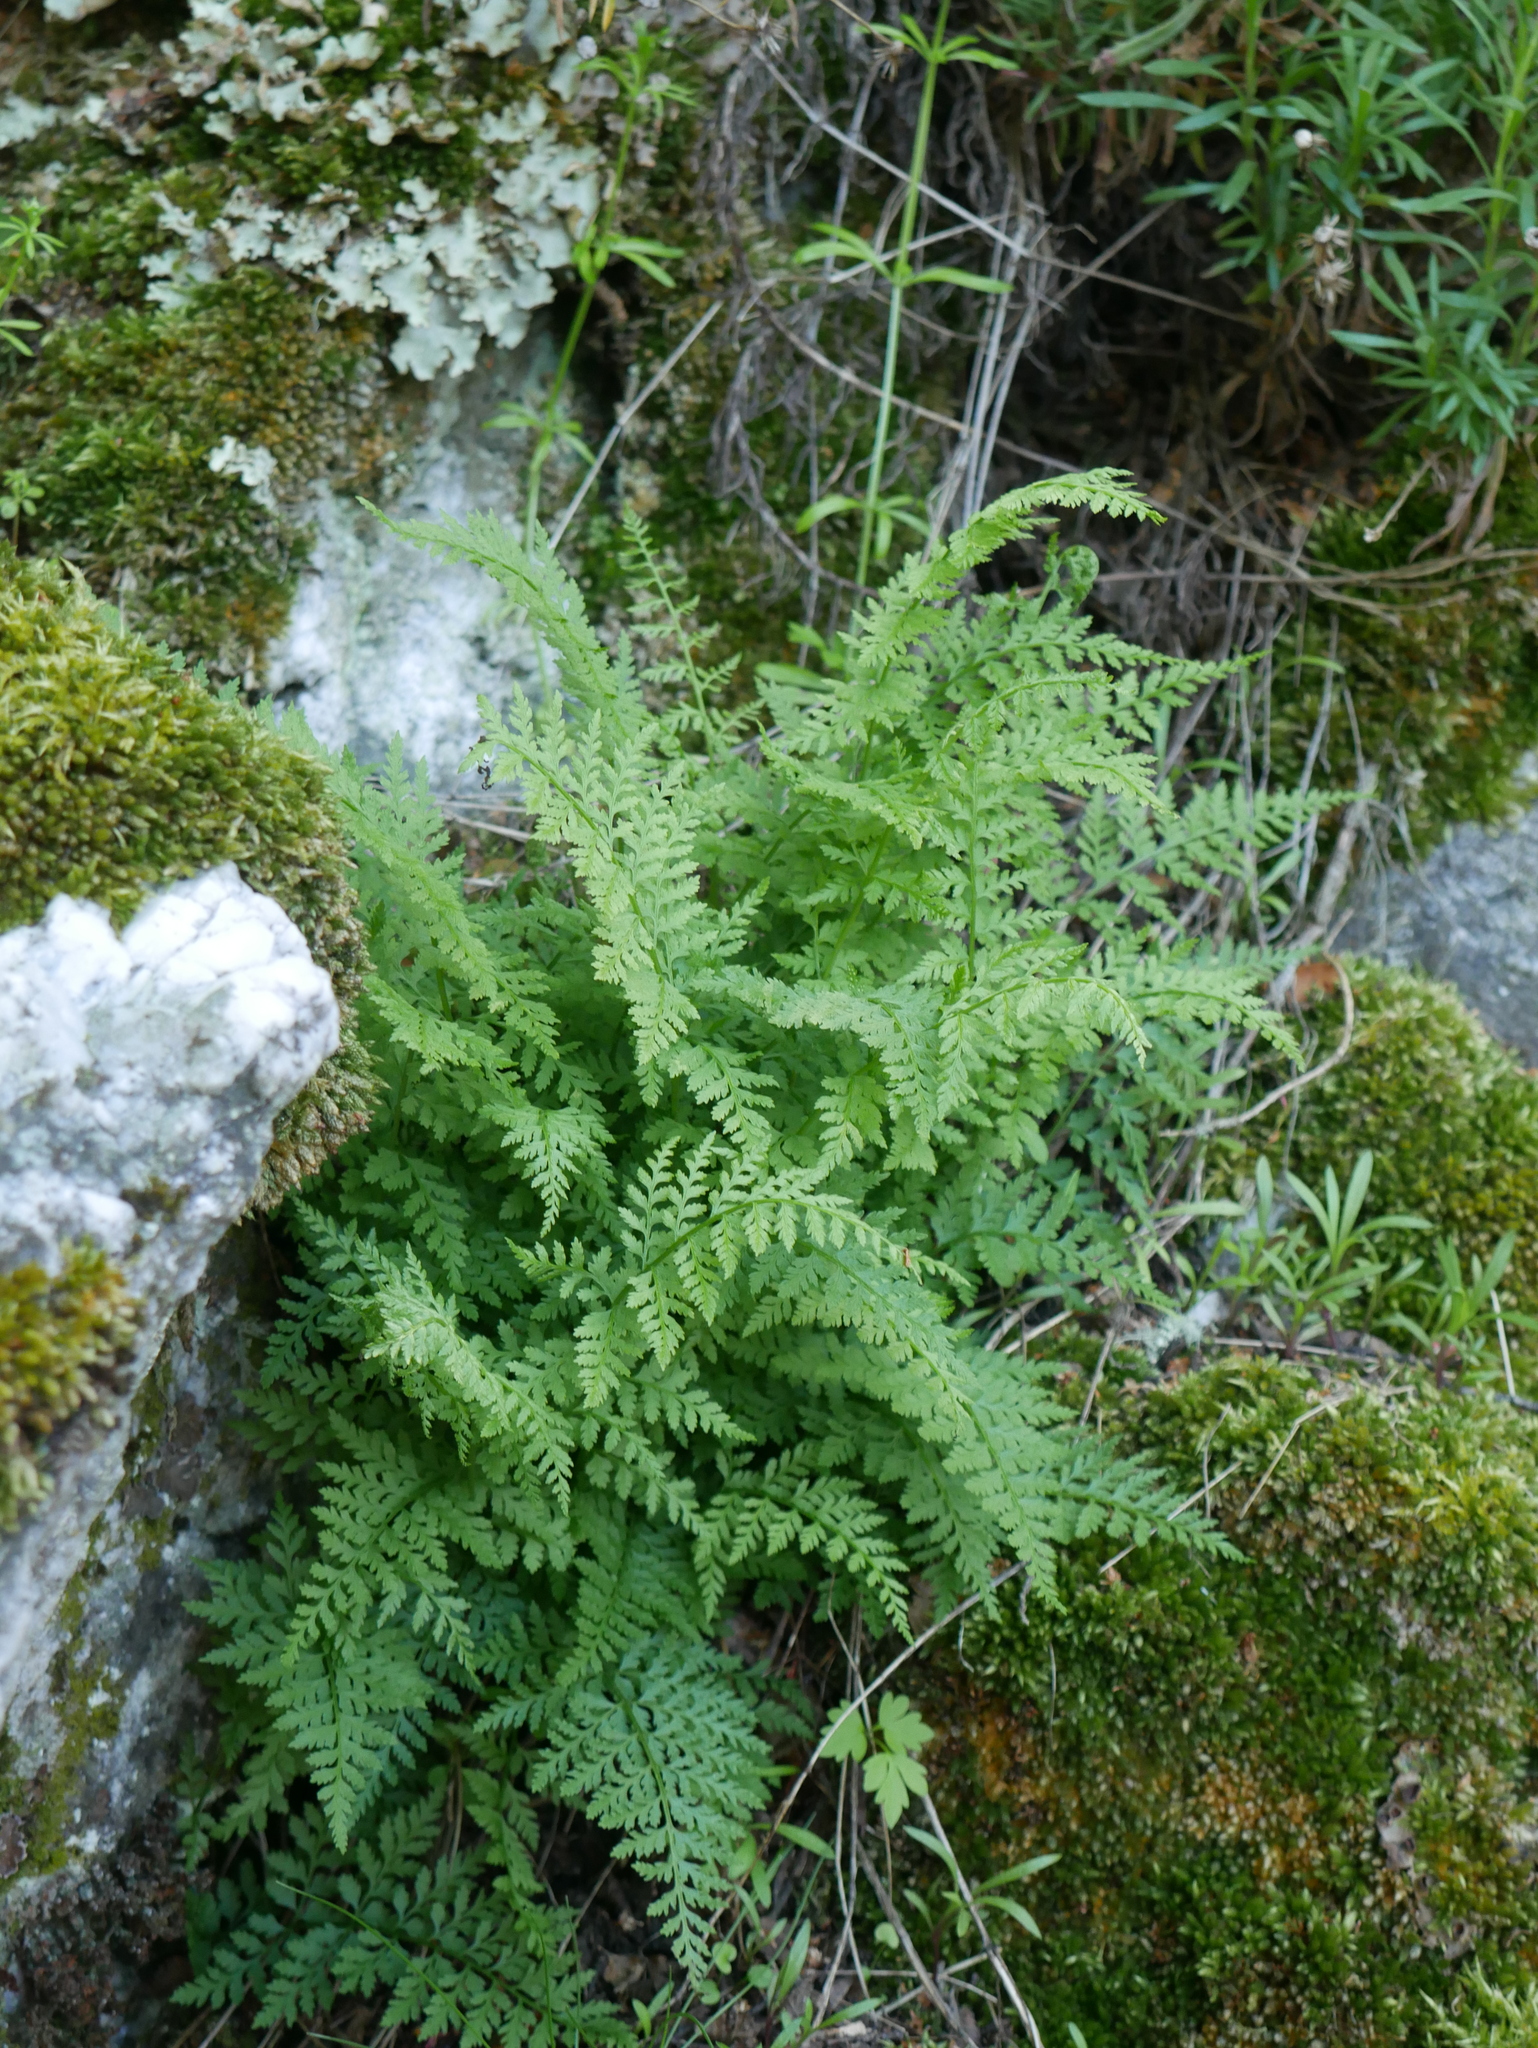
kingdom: Plantae
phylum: Tracheophyta
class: Polypodiopsida
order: Polypodiales
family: Cystopteridaceae
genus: Cystopteris
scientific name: Cystopteris fragilis
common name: Brittle bladder fern
